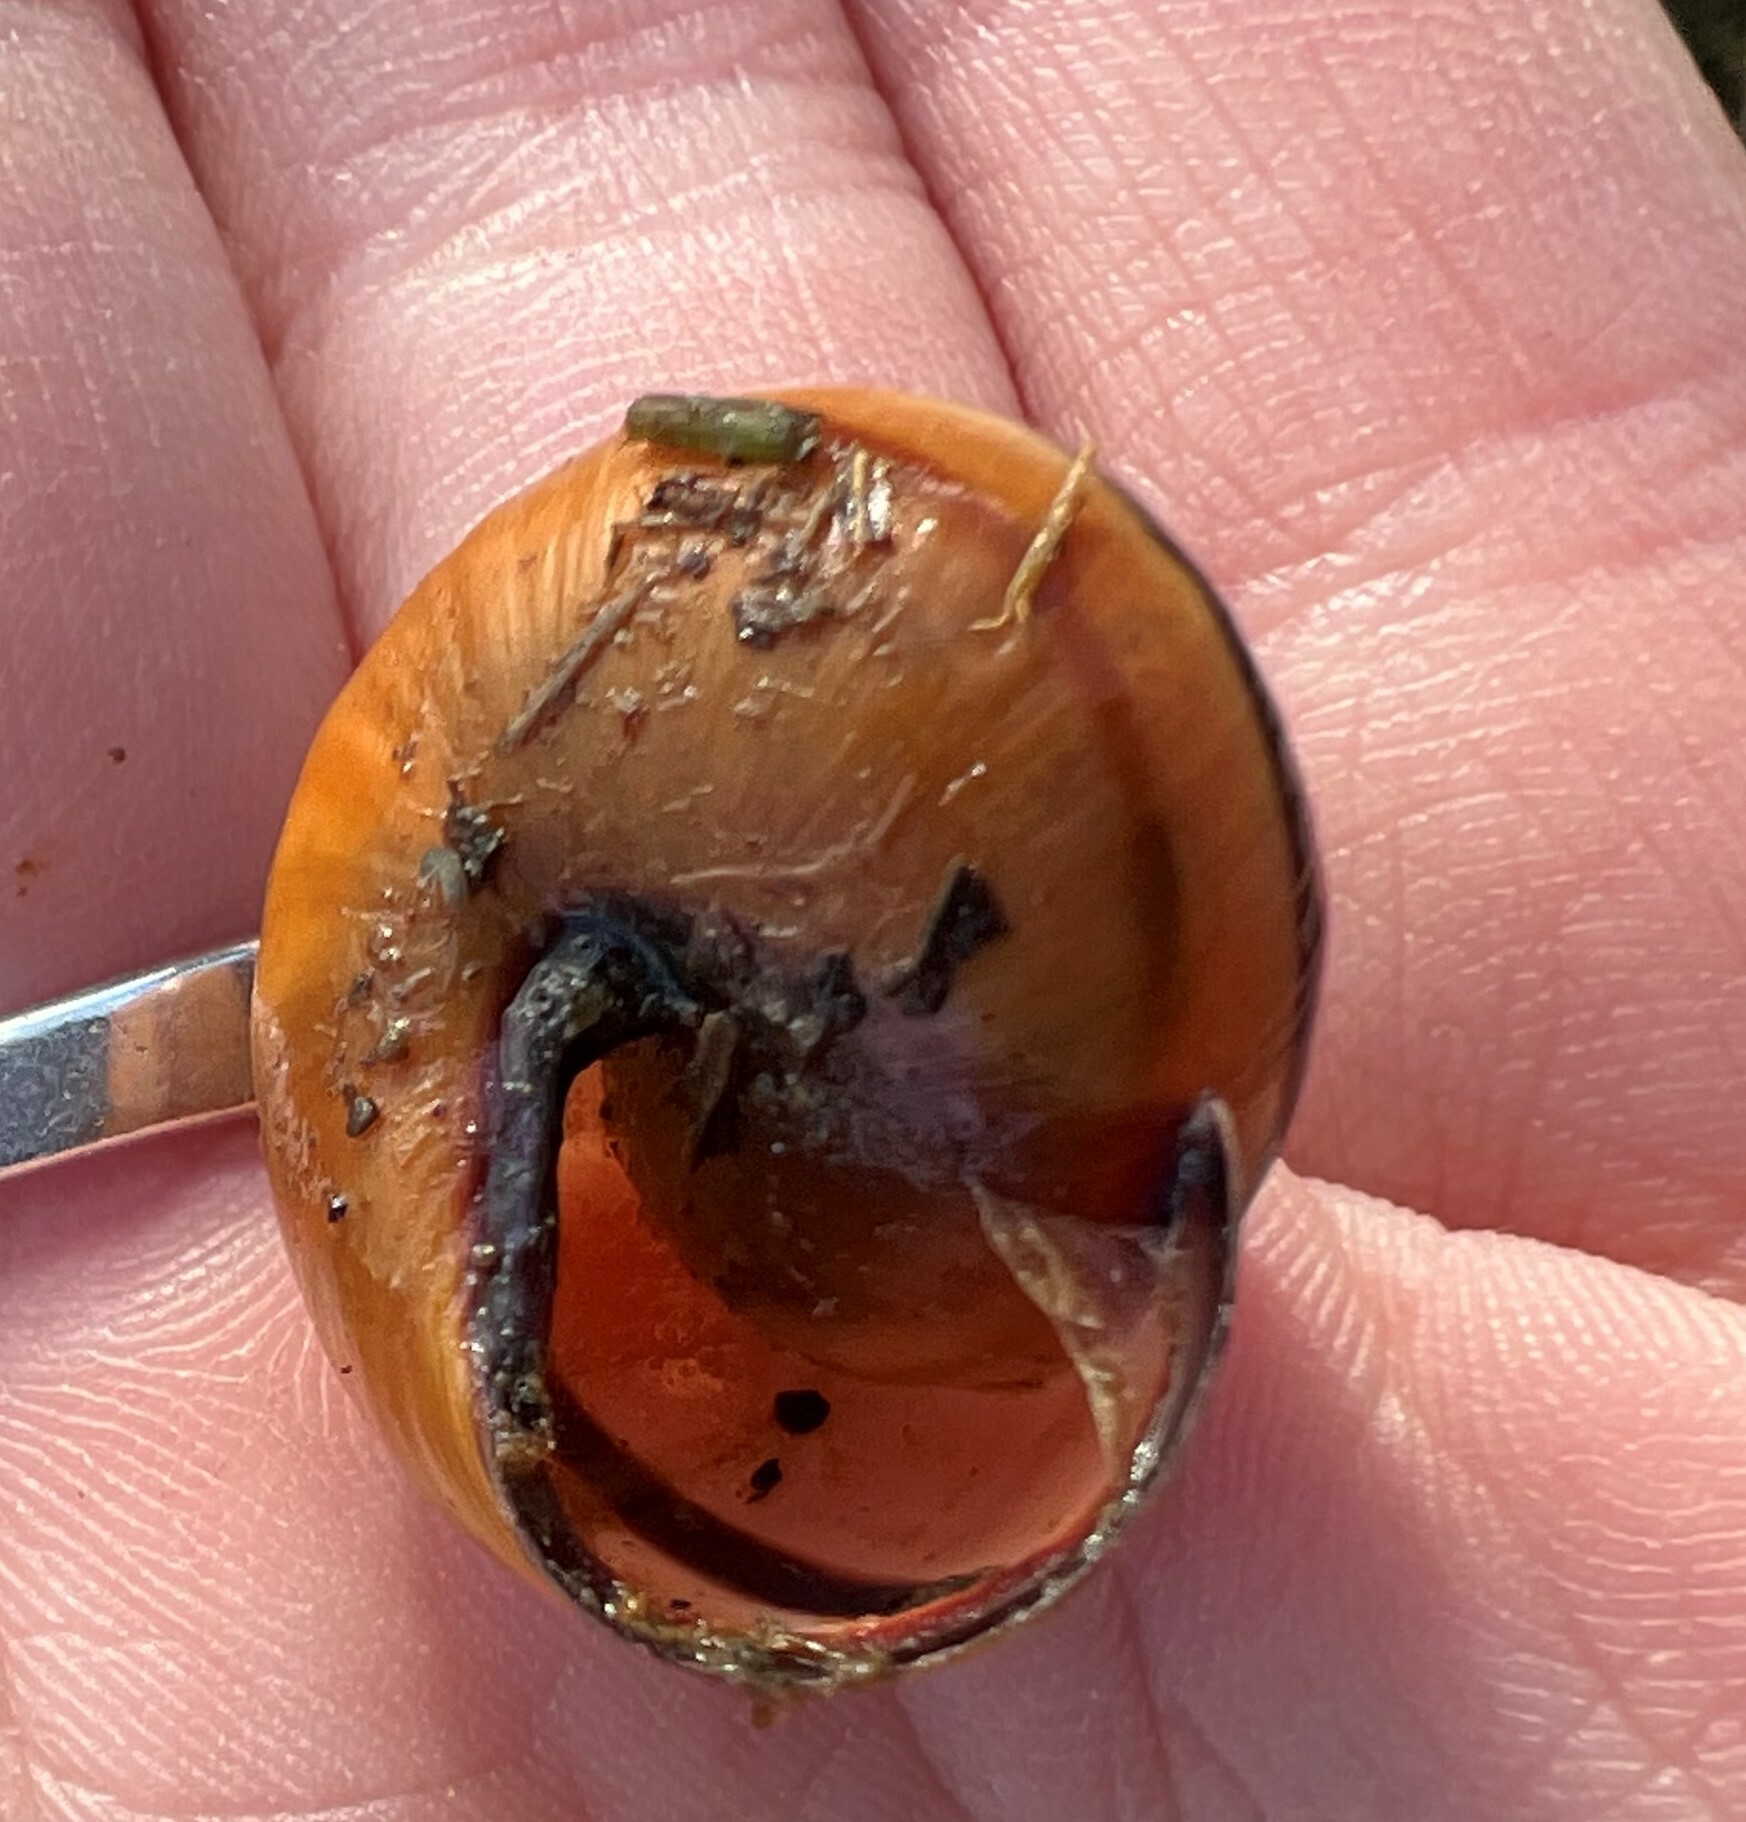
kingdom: Animalia
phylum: Mollusca
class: Gastropoda
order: Stylommatophora
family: Helicidae
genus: Cepaea
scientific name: Cepaea nemoralis
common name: Grovesnail
